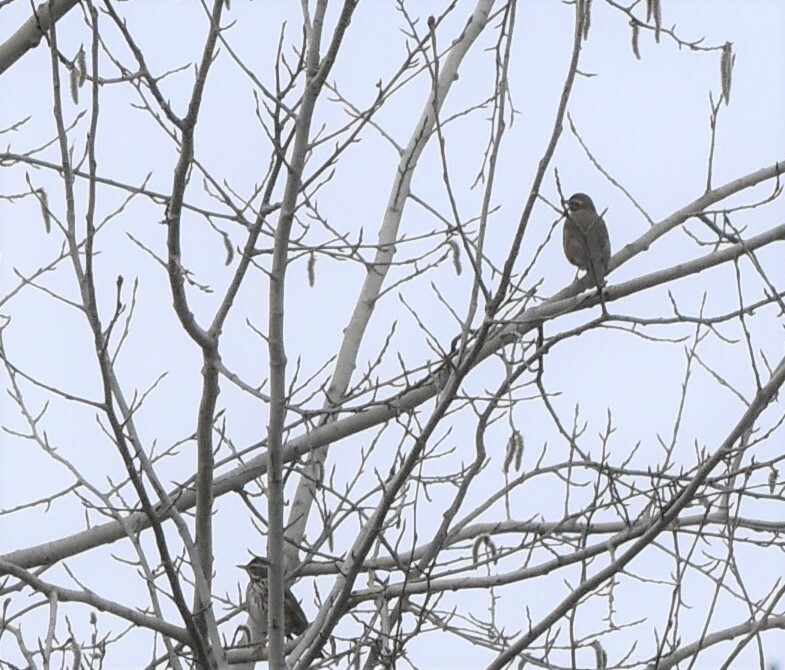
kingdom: Animalia
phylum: Chordata
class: Aves
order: Passeriformes
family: Turdidae
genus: Turdus
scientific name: Turdus iliacus
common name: Redwing
